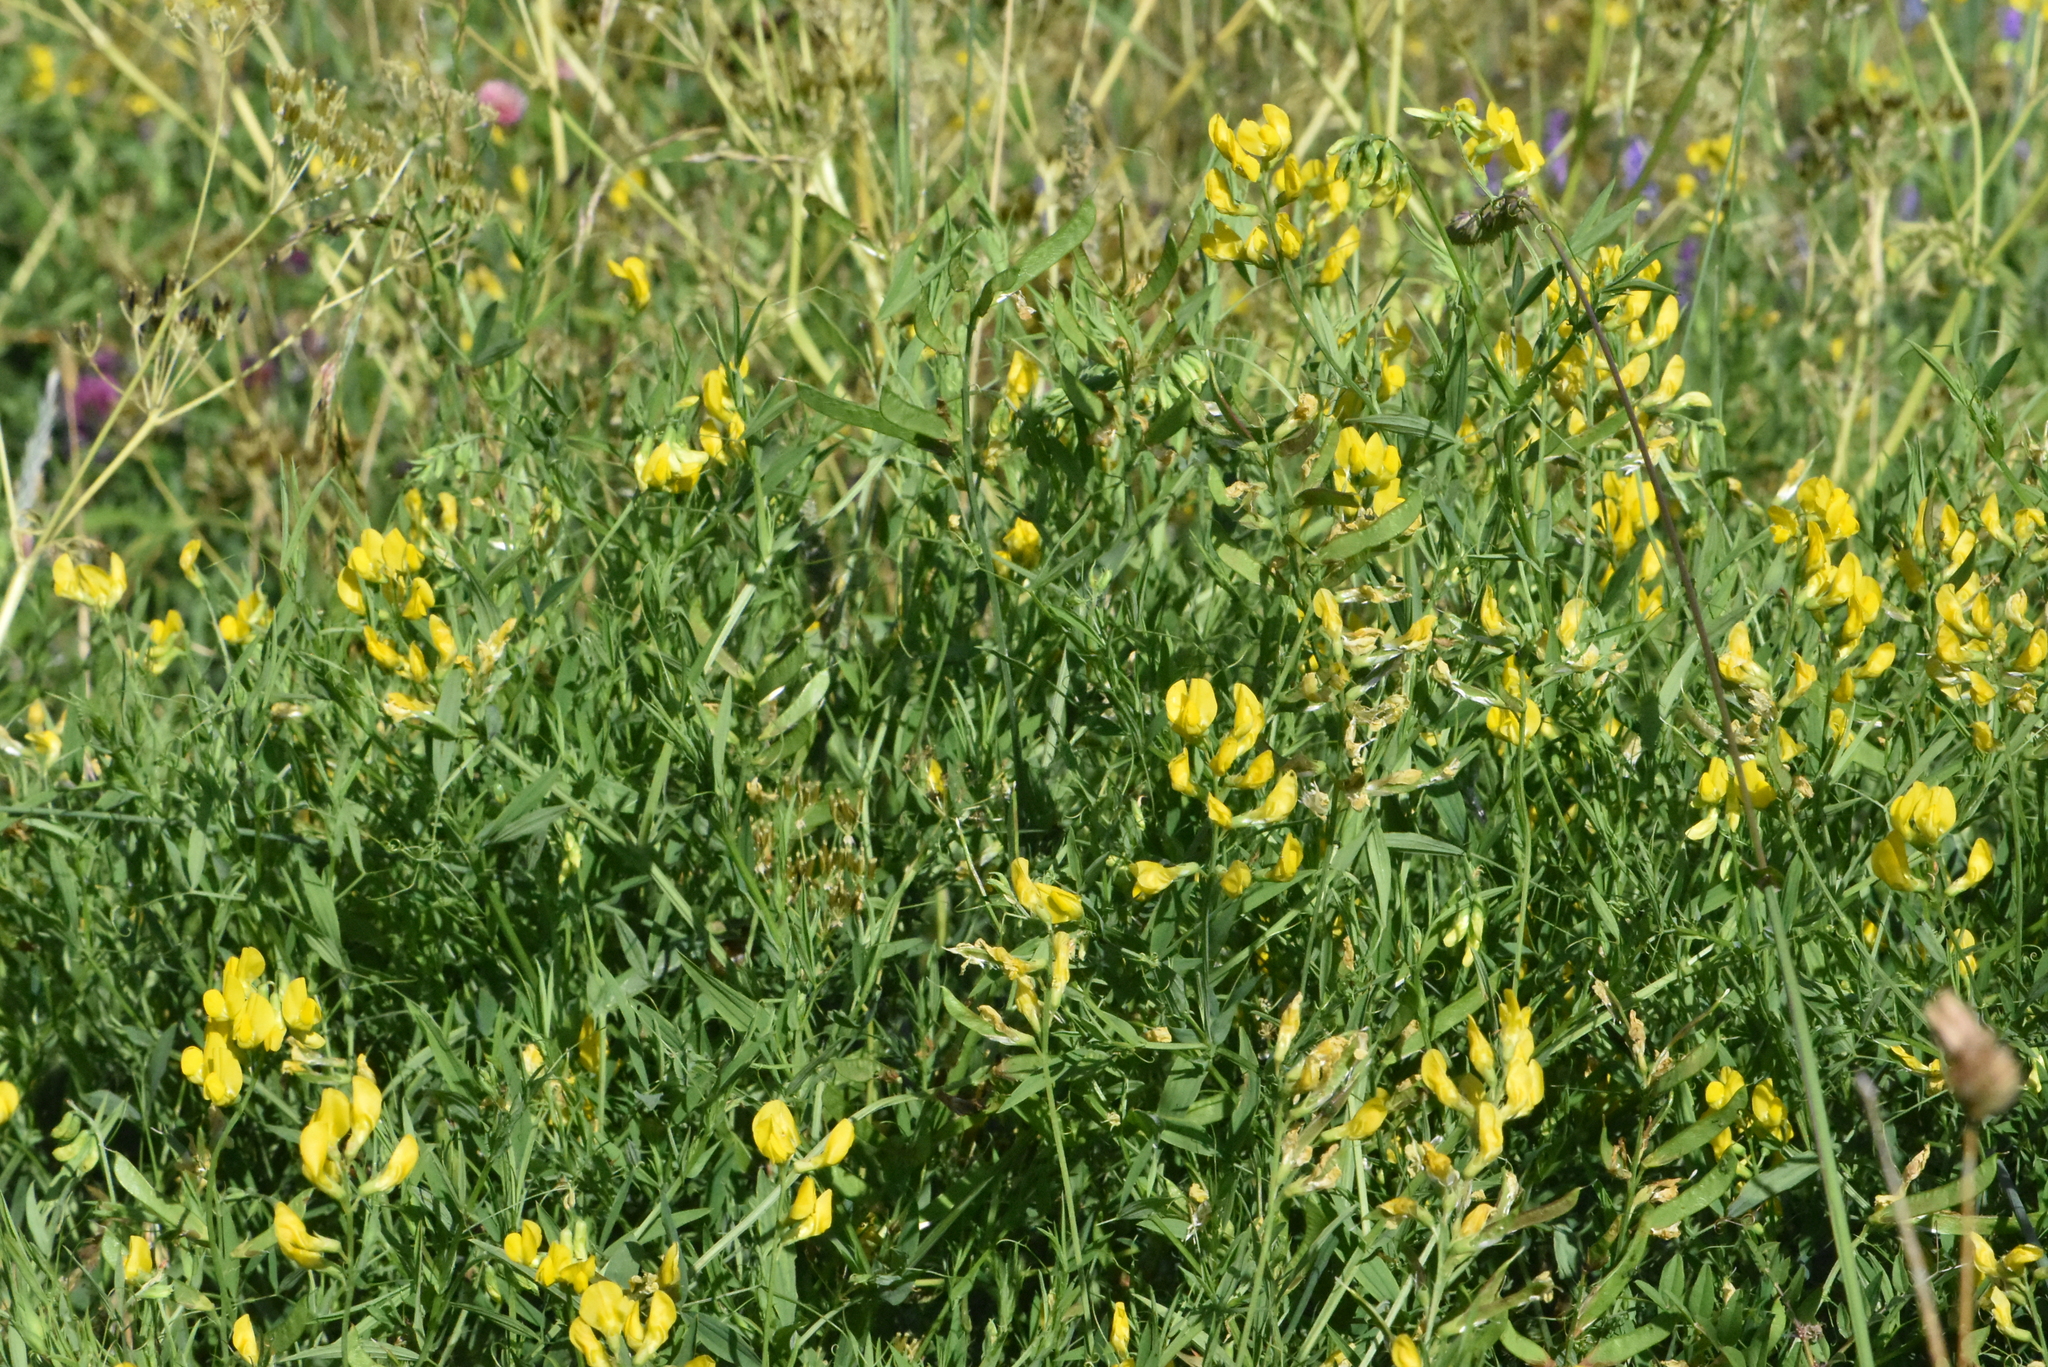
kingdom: Plantae
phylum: Tracheophyta
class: Magnoliopsida
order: Fabales
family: Fabaceae
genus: Lathyrus
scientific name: Lathyrus pratensis
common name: Meadow vetchling
